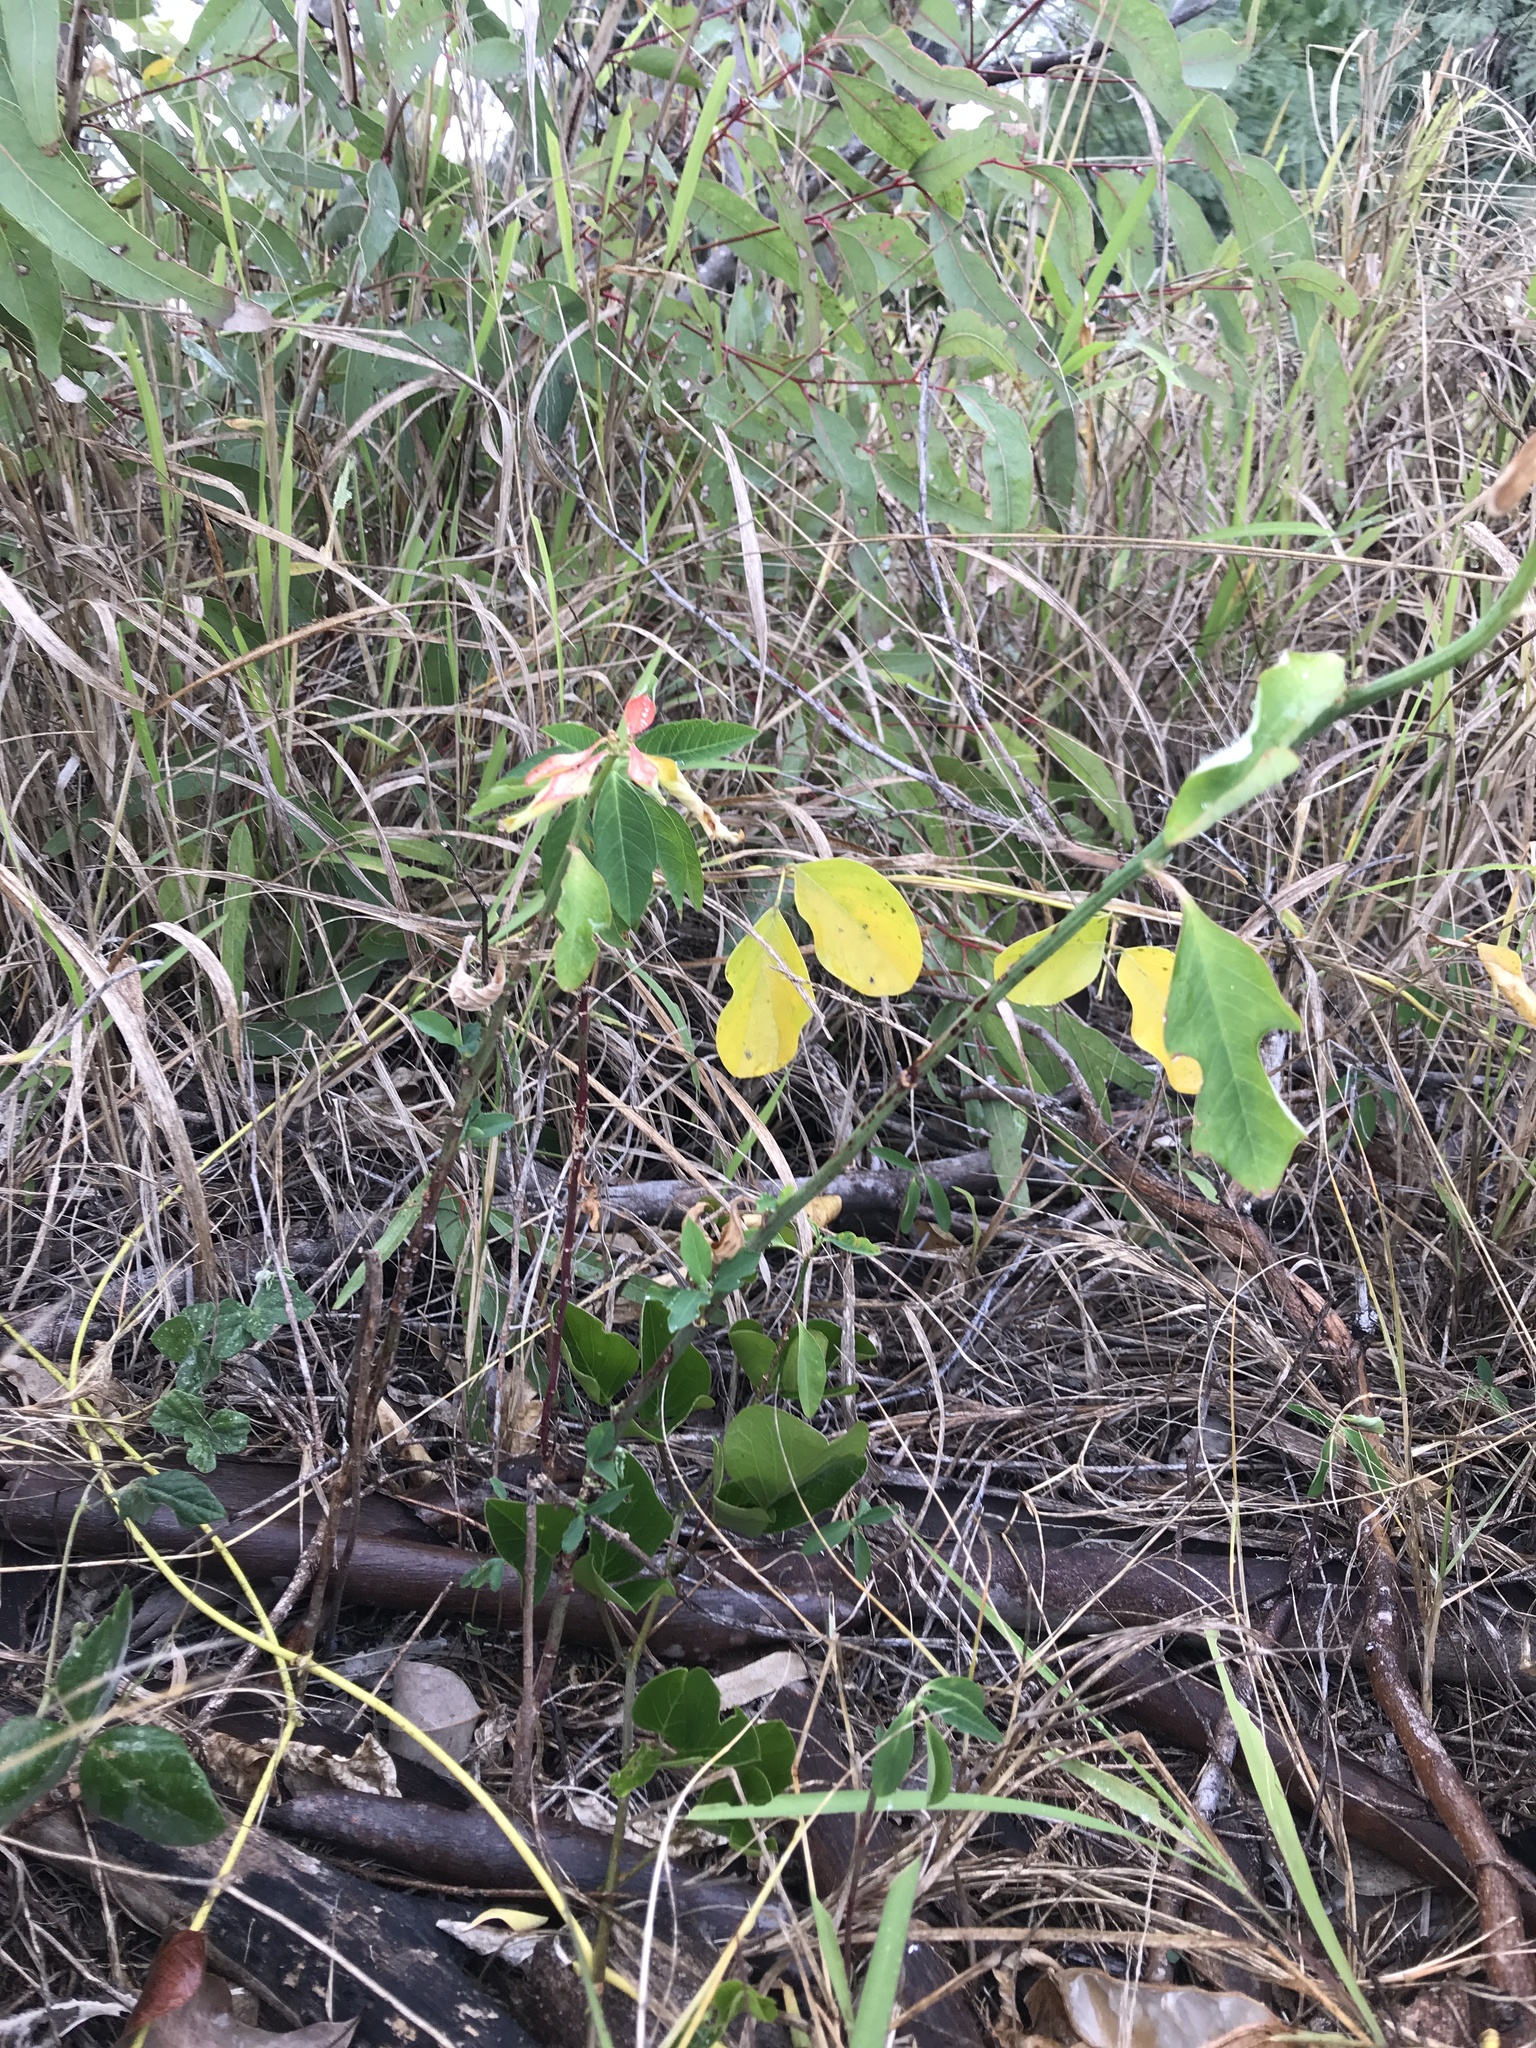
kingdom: Plantae
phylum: Tracheophyta
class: Magnoliopsida
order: Malpighiales
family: Euphorbiaceae
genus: Euphorbia
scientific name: Euphorbia heterophylla
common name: Mexican fireplant
